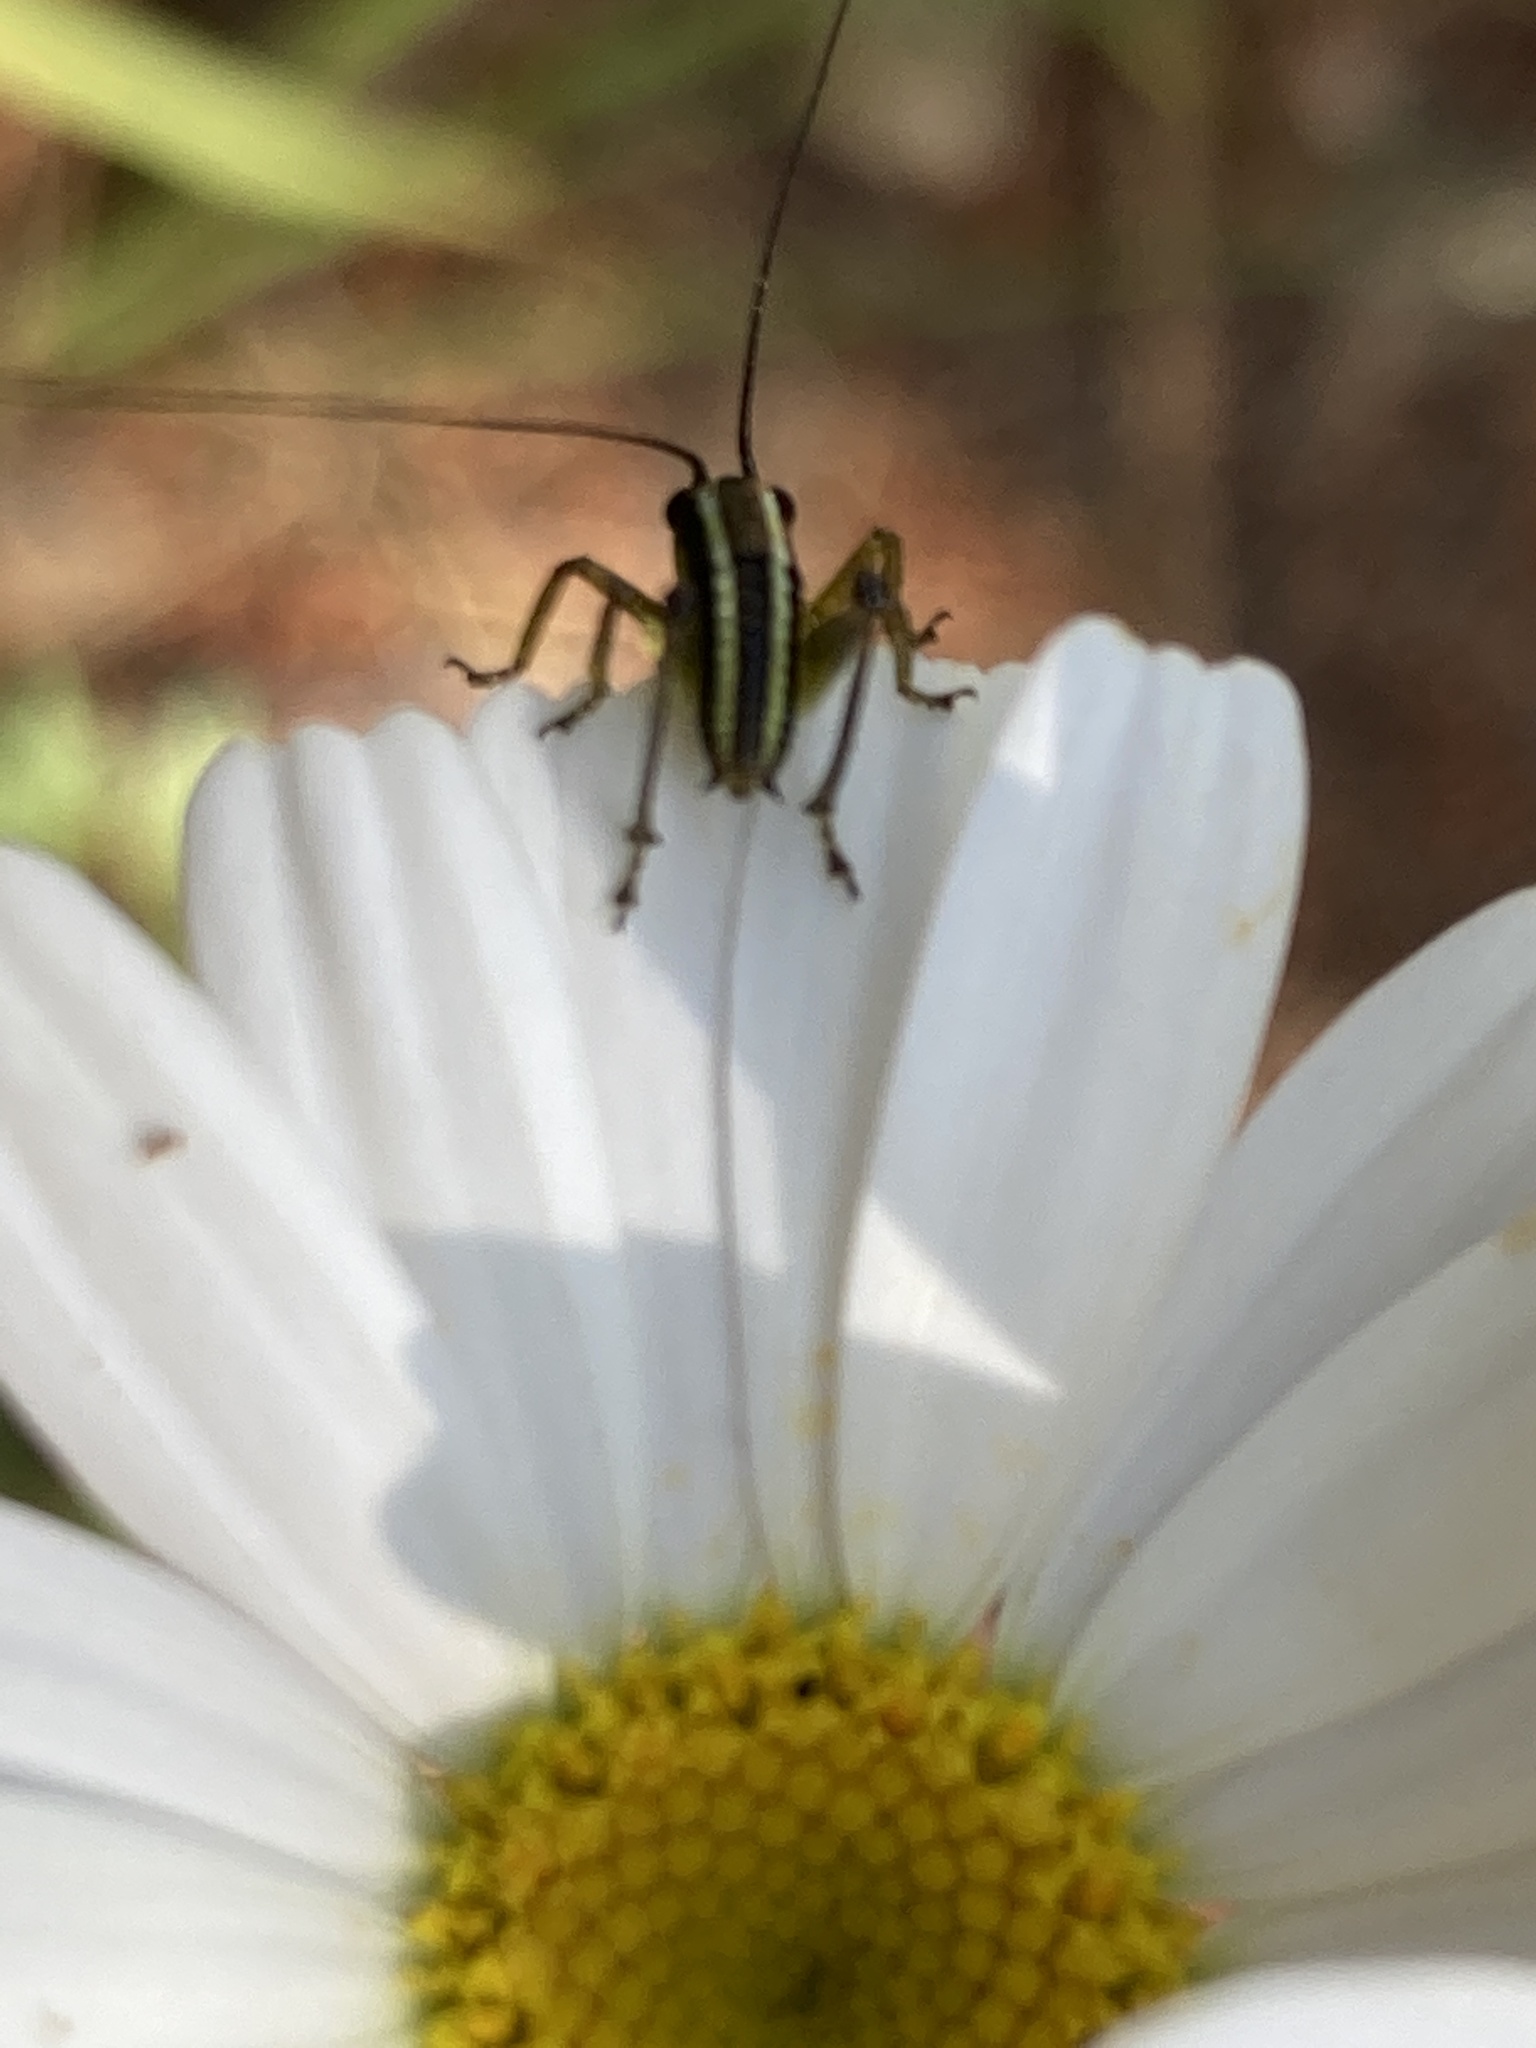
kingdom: Animalia
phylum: Arthropoda
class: Insecta
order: Orthoptera
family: Tettigoniidae
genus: Pachytrachis
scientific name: Pachytrachis striolatus
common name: Striated bush-cricket
